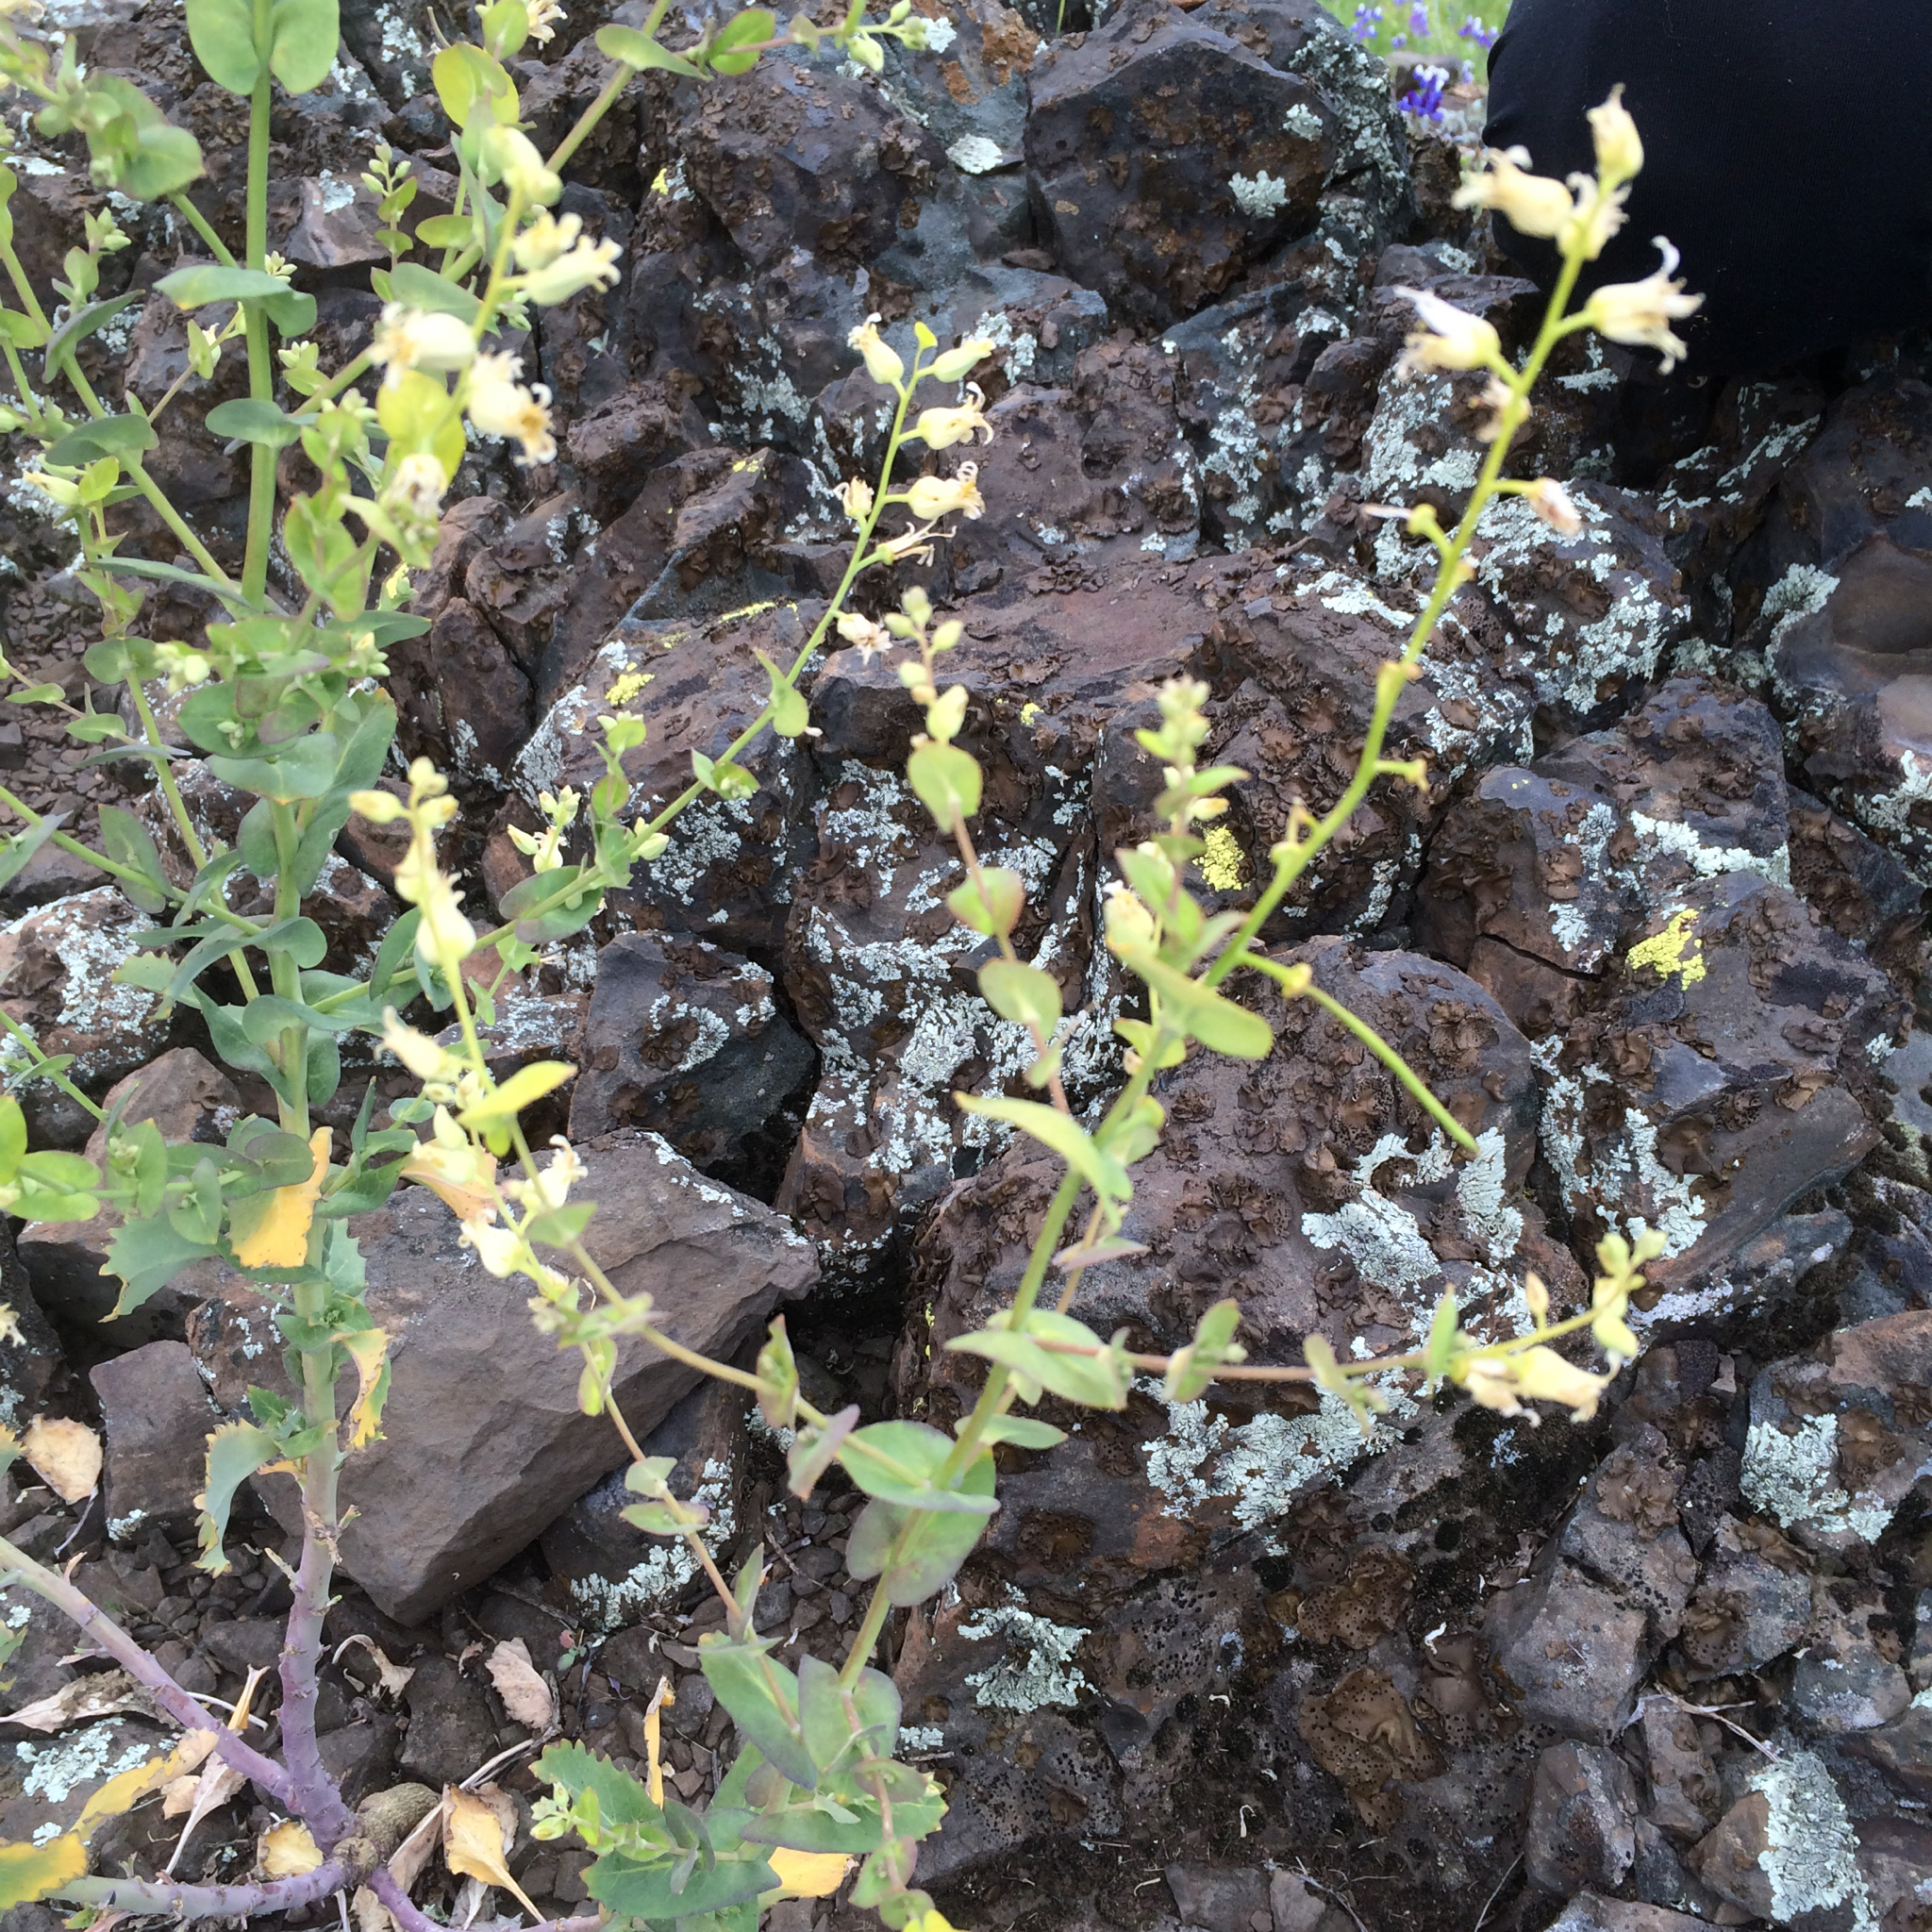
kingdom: Plantae
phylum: Tracheophyta
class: Magnoliopsida
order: Brassicales
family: Brassicaceae
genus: Streptanthus
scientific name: Streptanthus tortuosus
